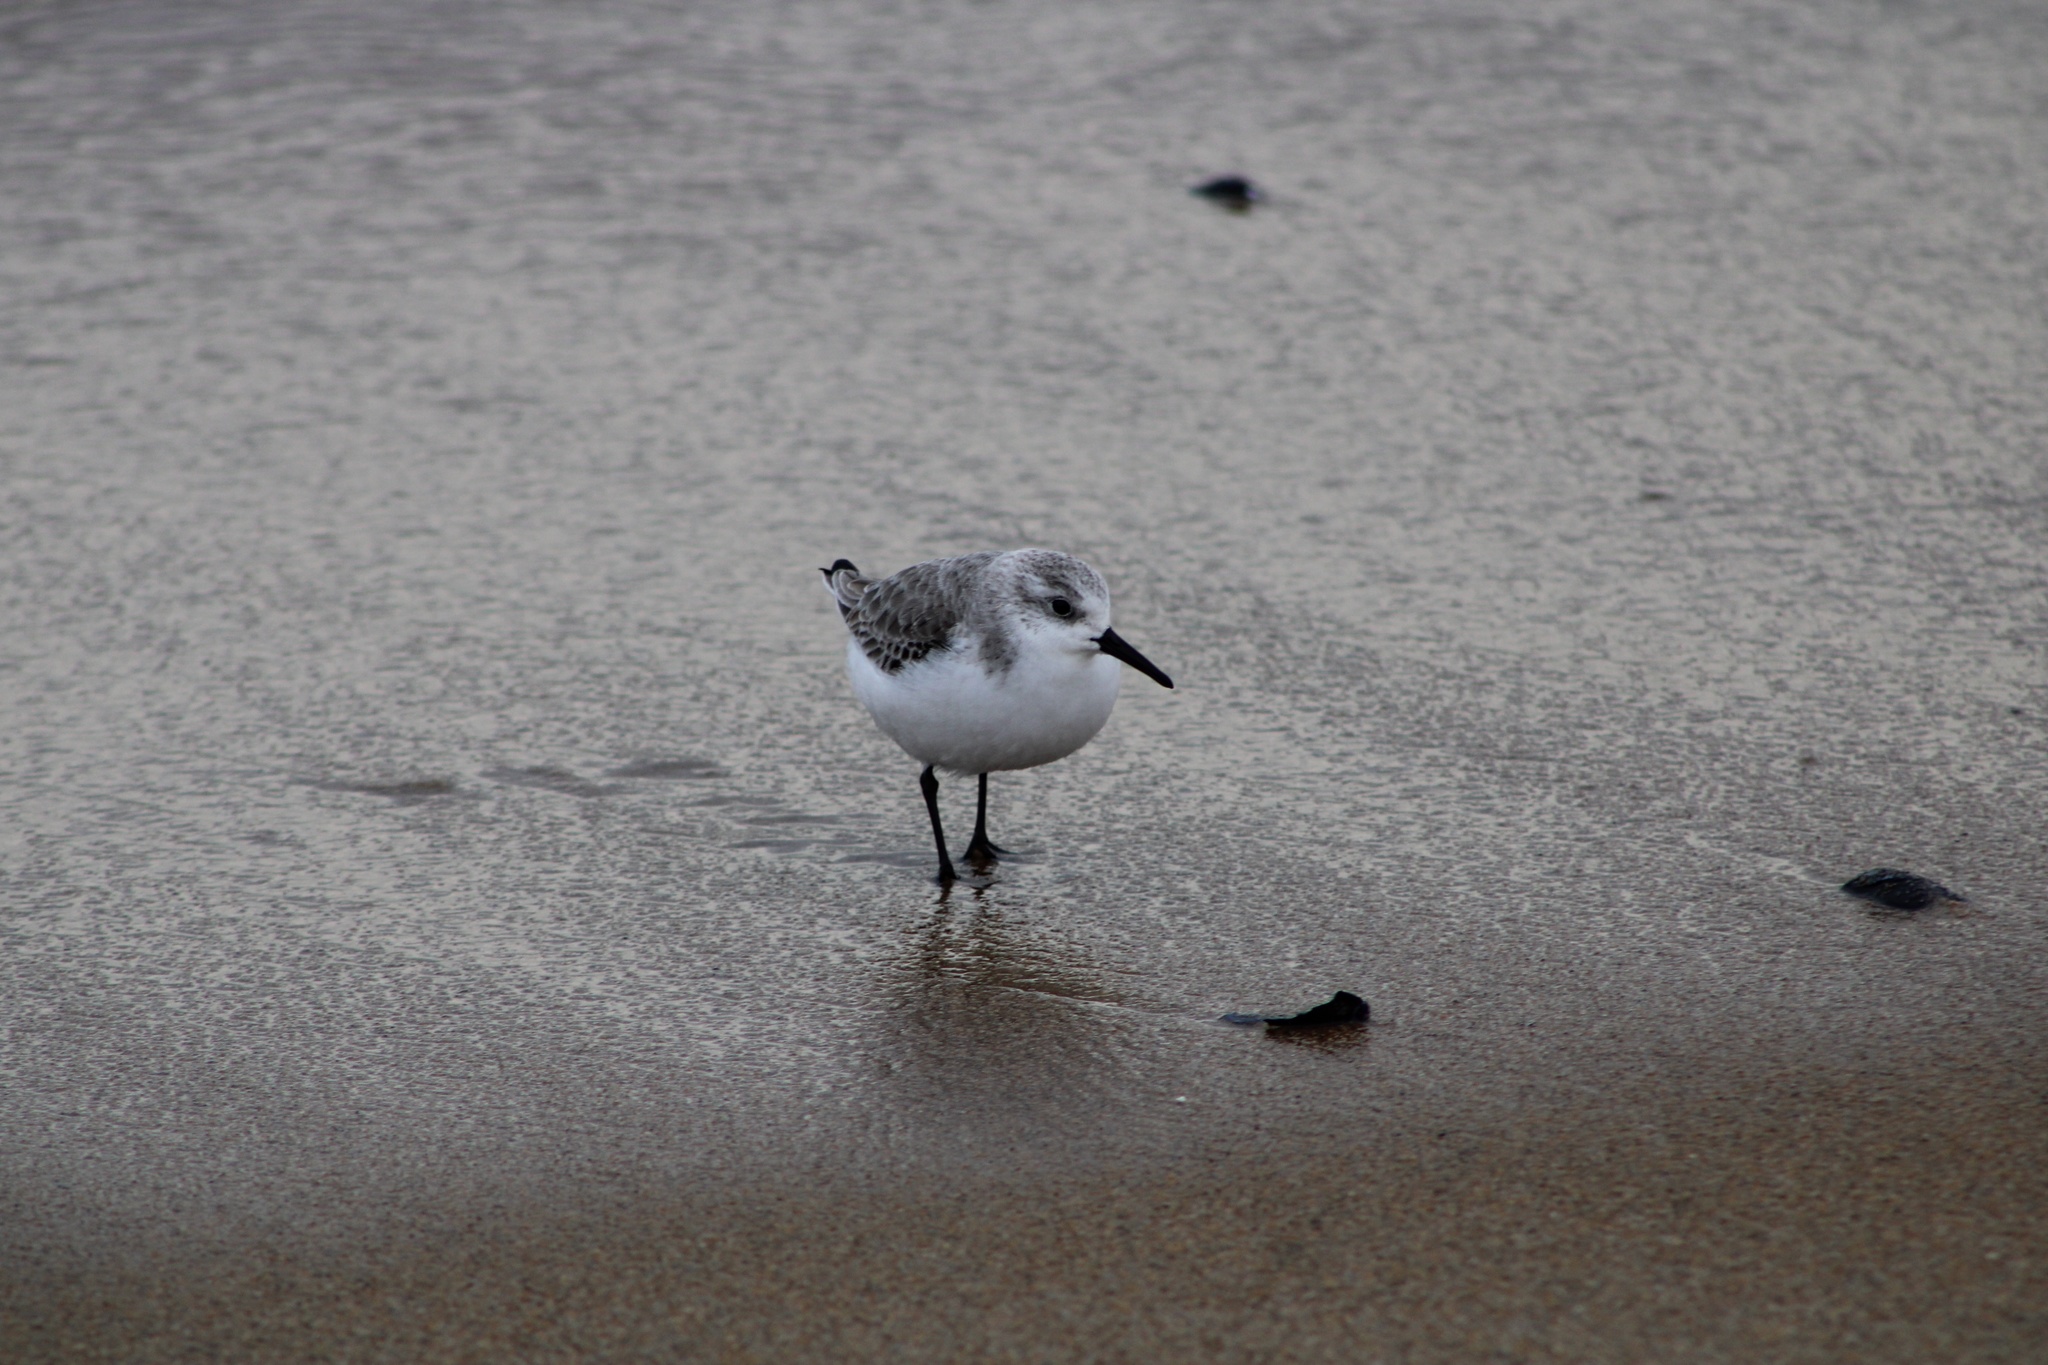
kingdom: Animalia
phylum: Chordata
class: Aves
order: Charadriiformes
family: Scolopacidae
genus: Calidris
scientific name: Calidris alba
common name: Sanderling
